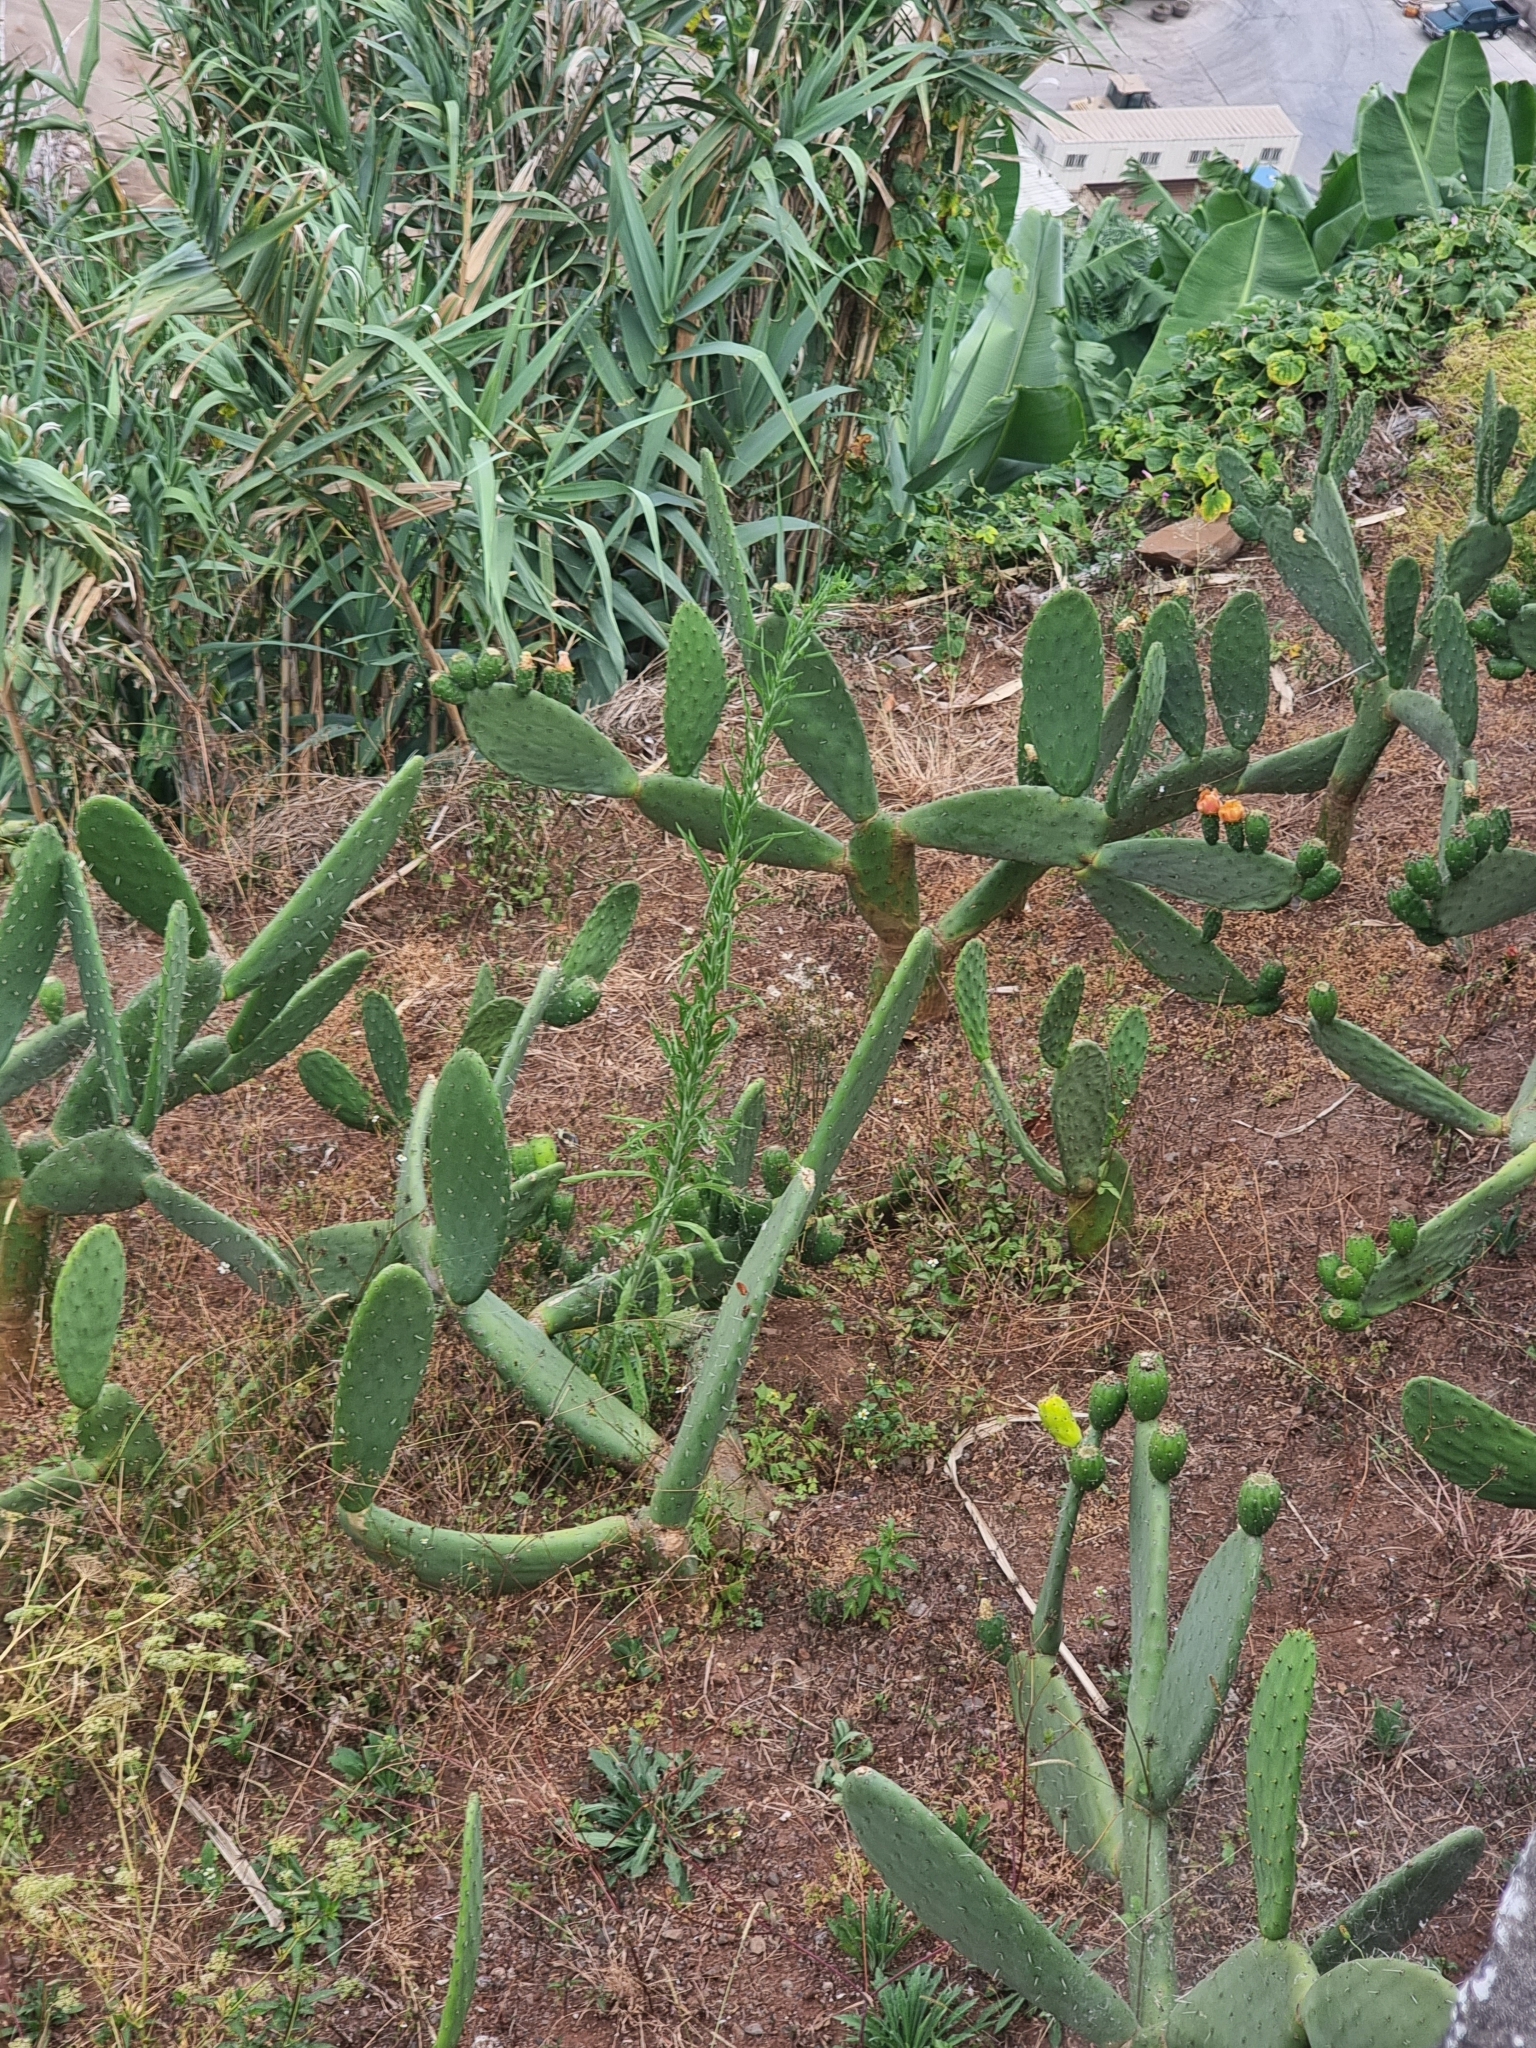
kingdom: Plantae
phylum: Tracheophyta
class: Magnoliopsida
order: Caryophyllales
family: Cactaceae
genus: Opuntia
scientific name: Opuntia ficus-indica
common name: Barbary fig
